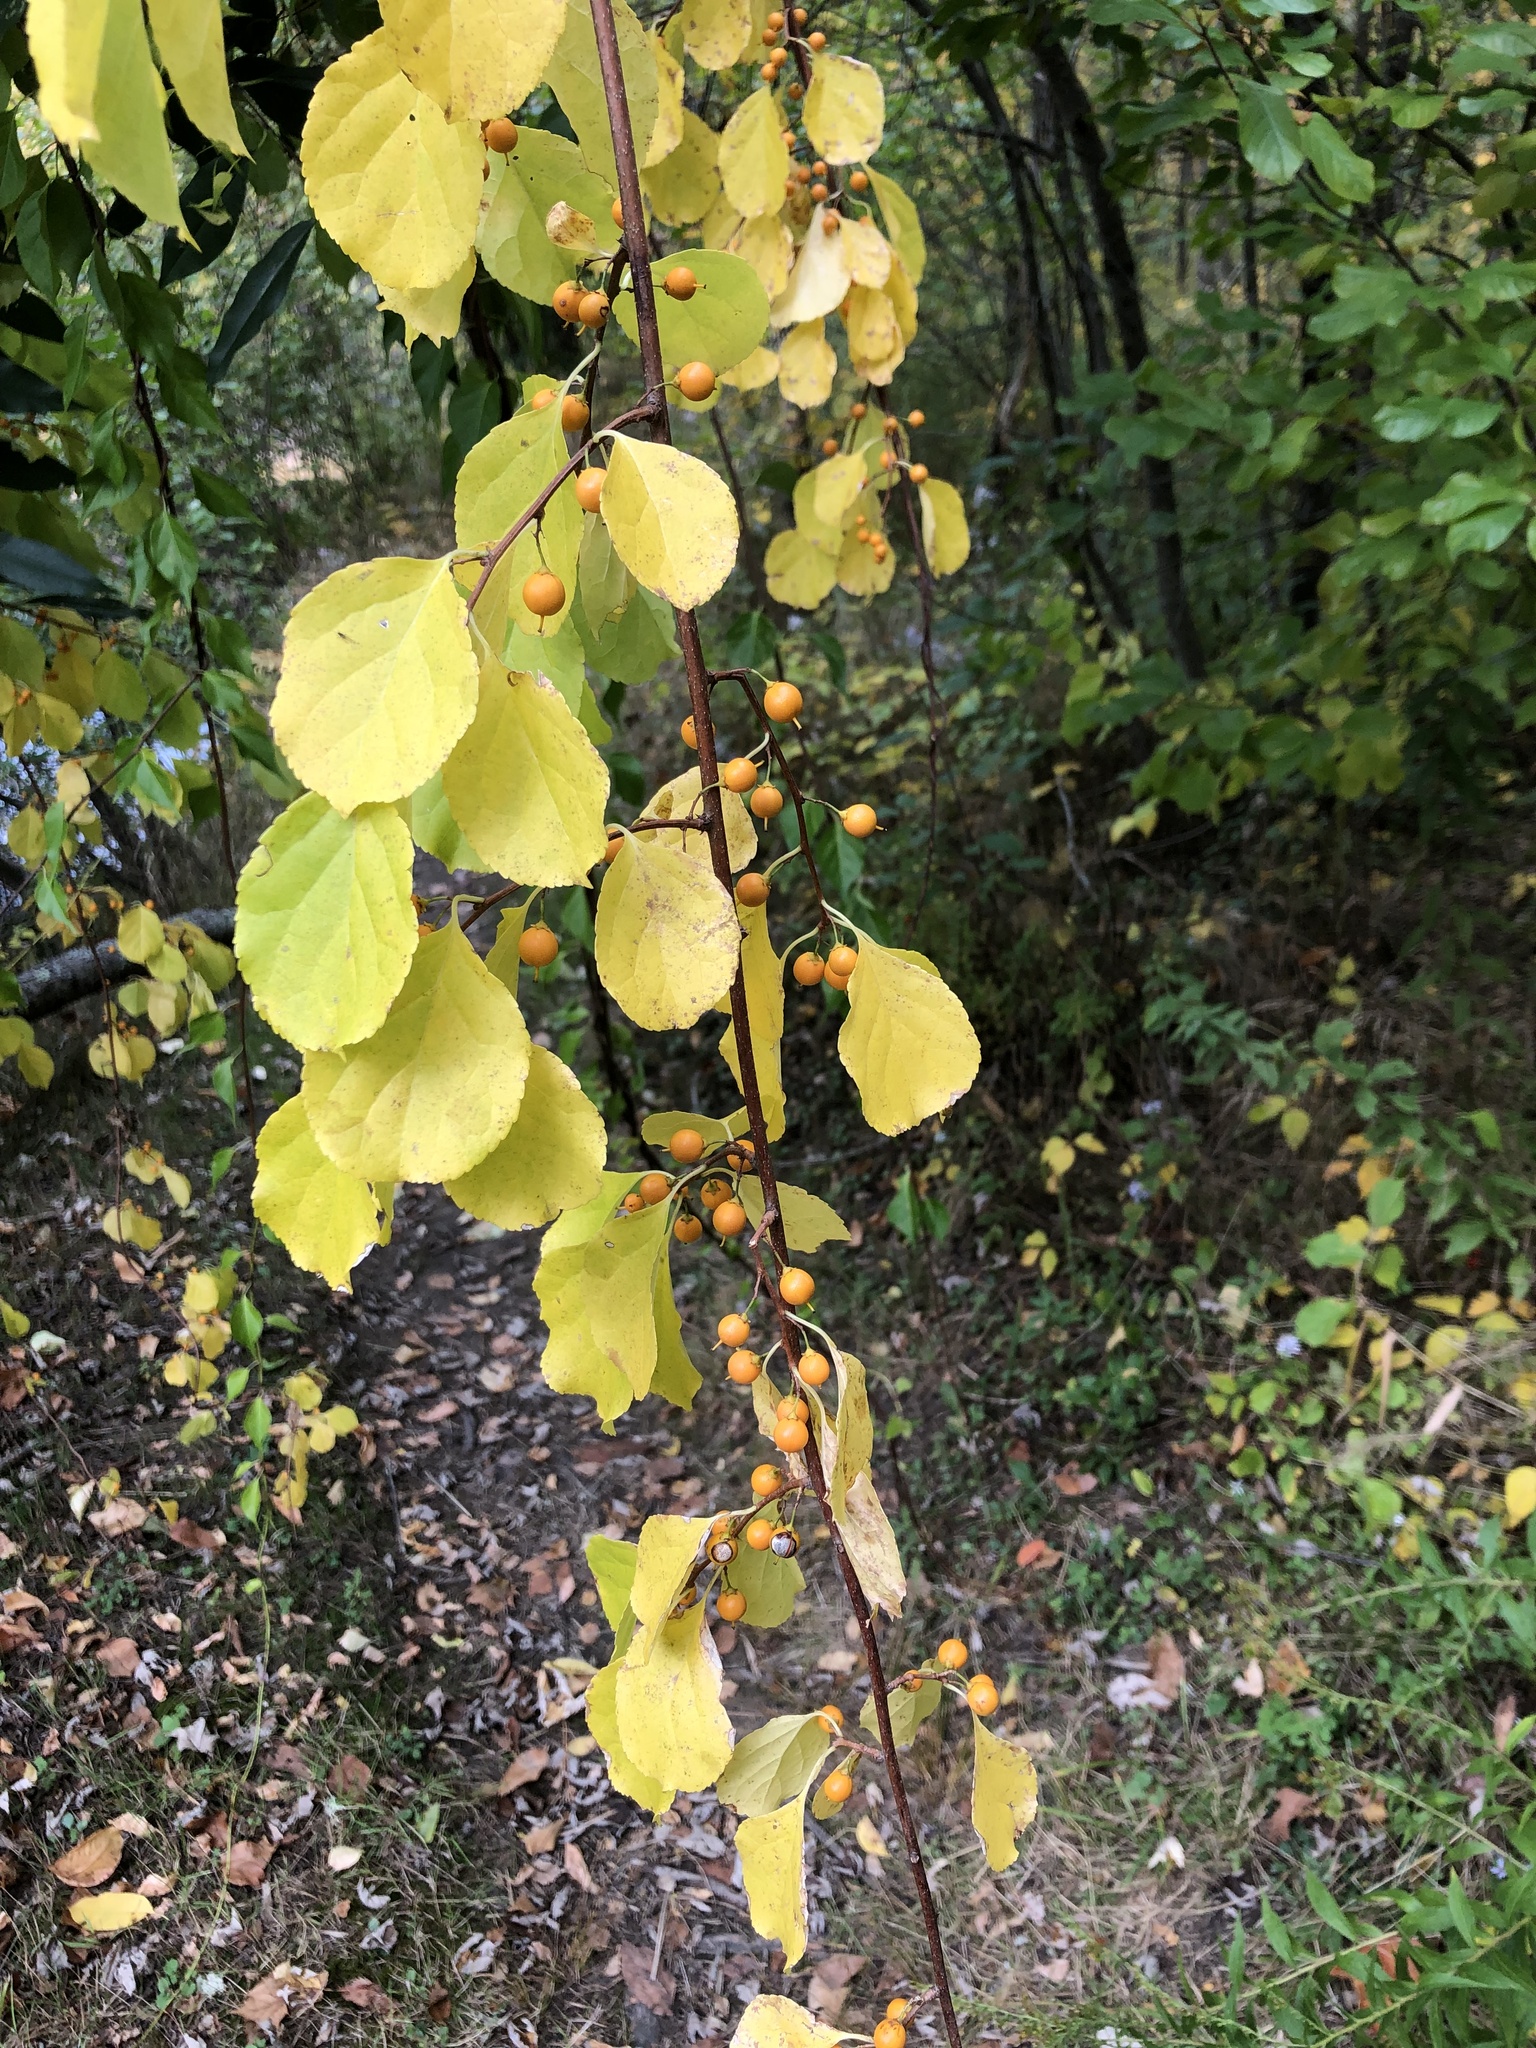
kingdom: Plantae
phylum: Tracheophyta
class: Magnoliopsida
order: Celastrales
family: Celastraceae
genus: Celastrus
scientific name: Celastrus orbiculatus
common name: Oriental bittersweet
